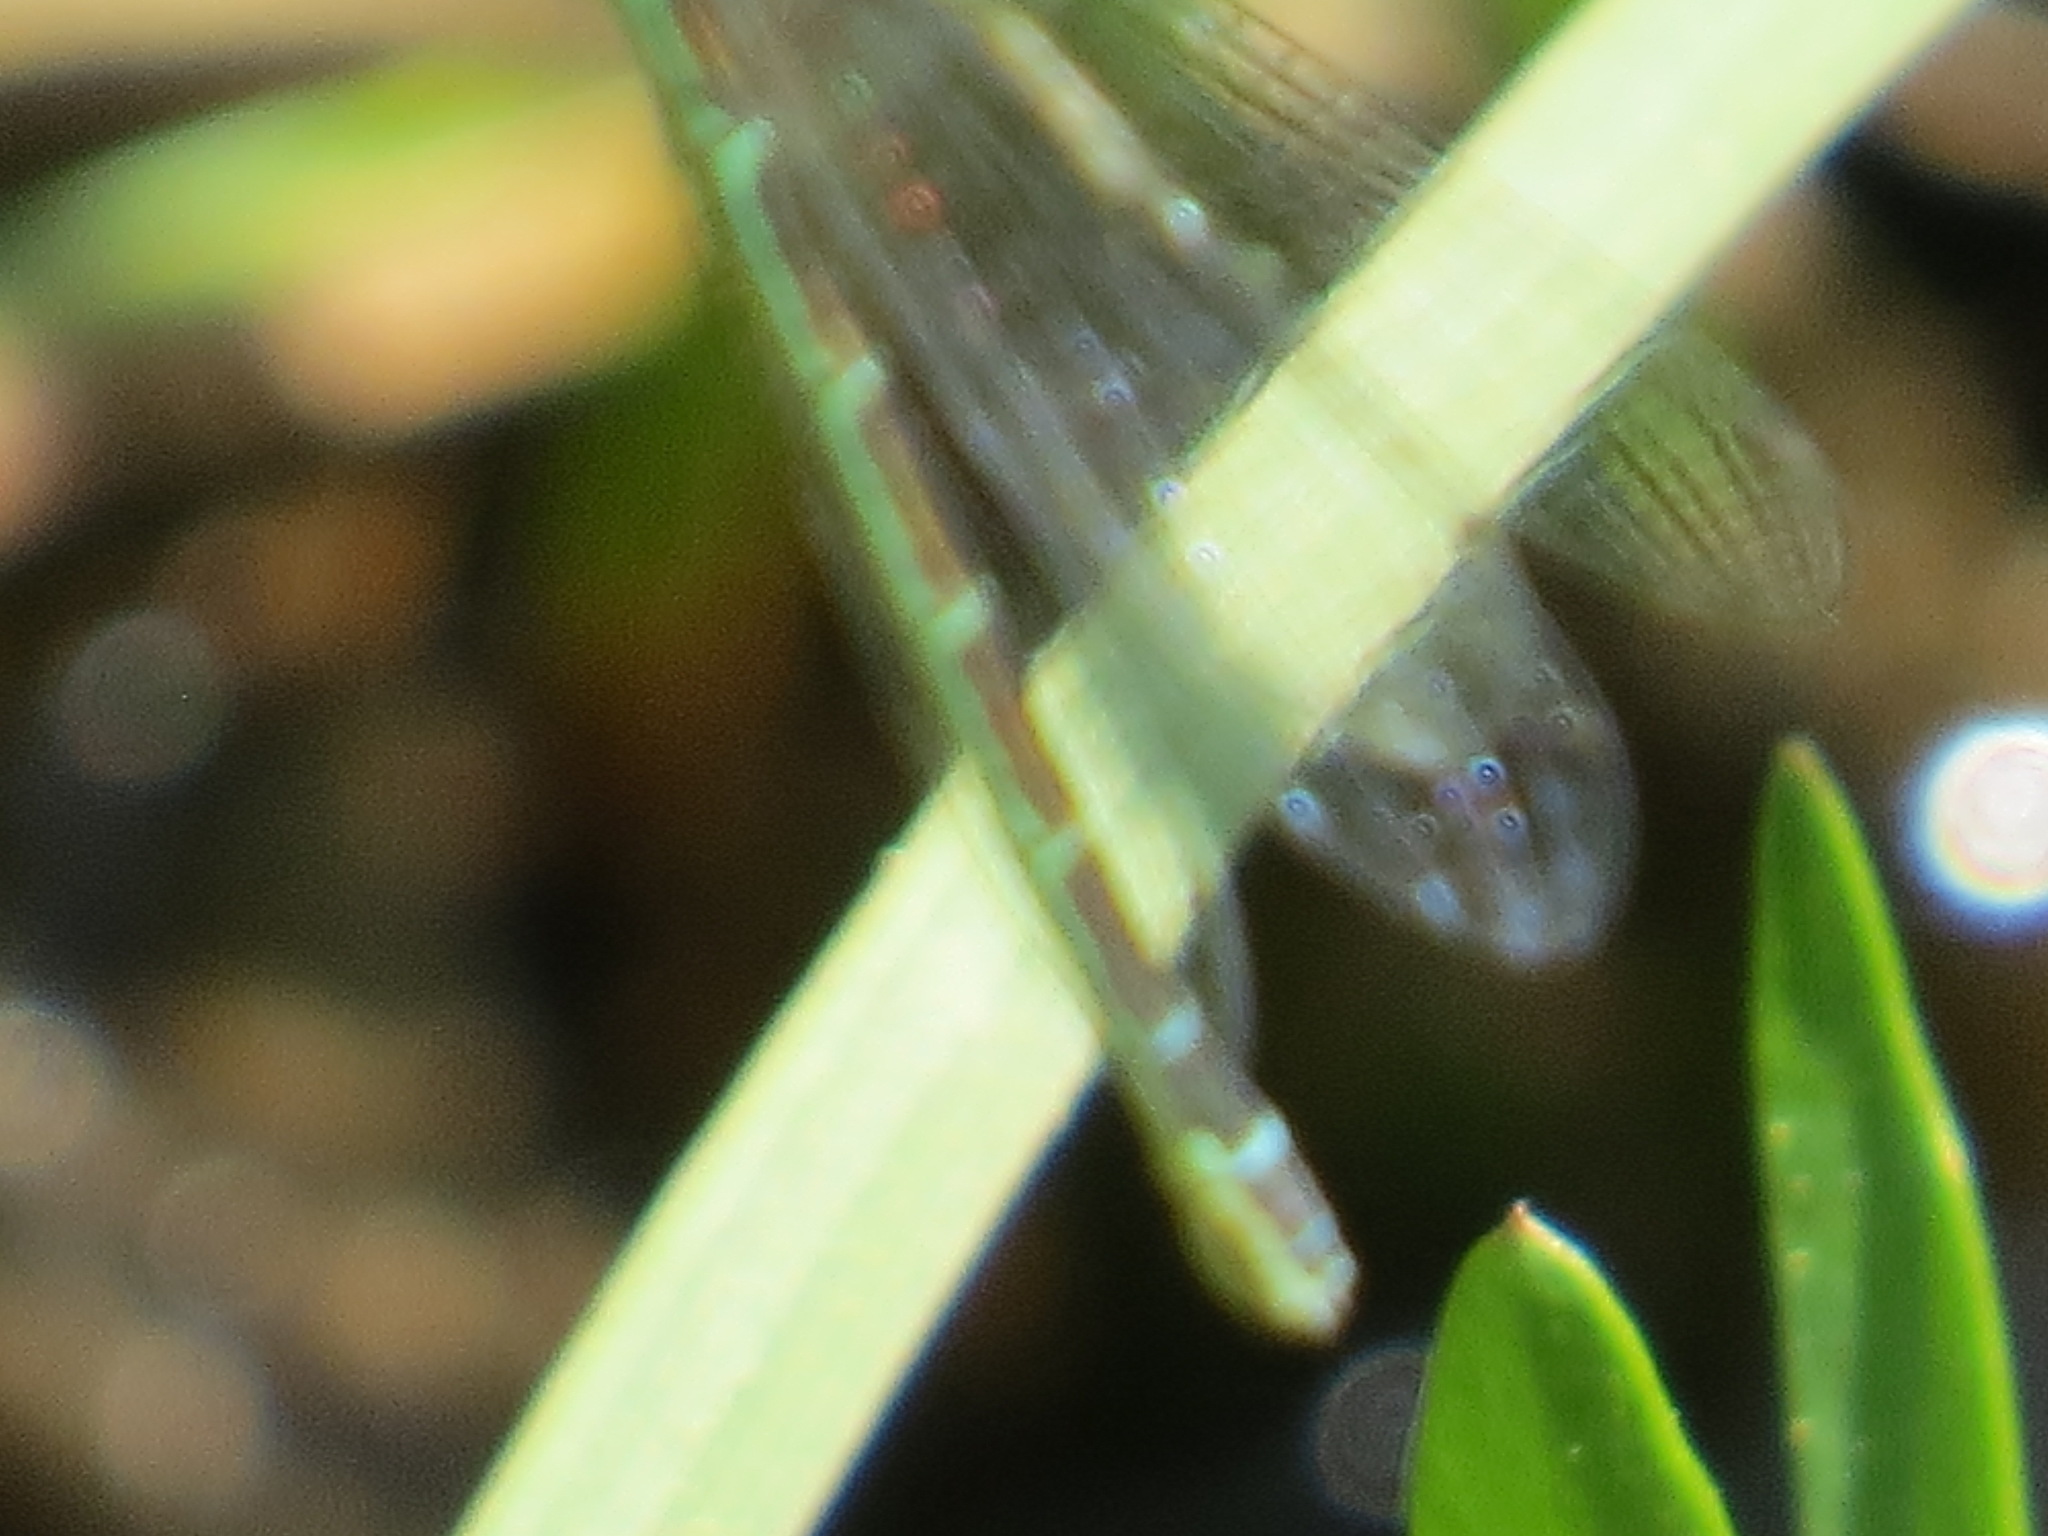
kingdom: Animalia
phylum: Arthropoda
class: Insecta
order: Odonata
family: Coenagrionidae
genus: Coenagrion
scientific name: Coenagrion resolutum
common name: Taiga bluet
